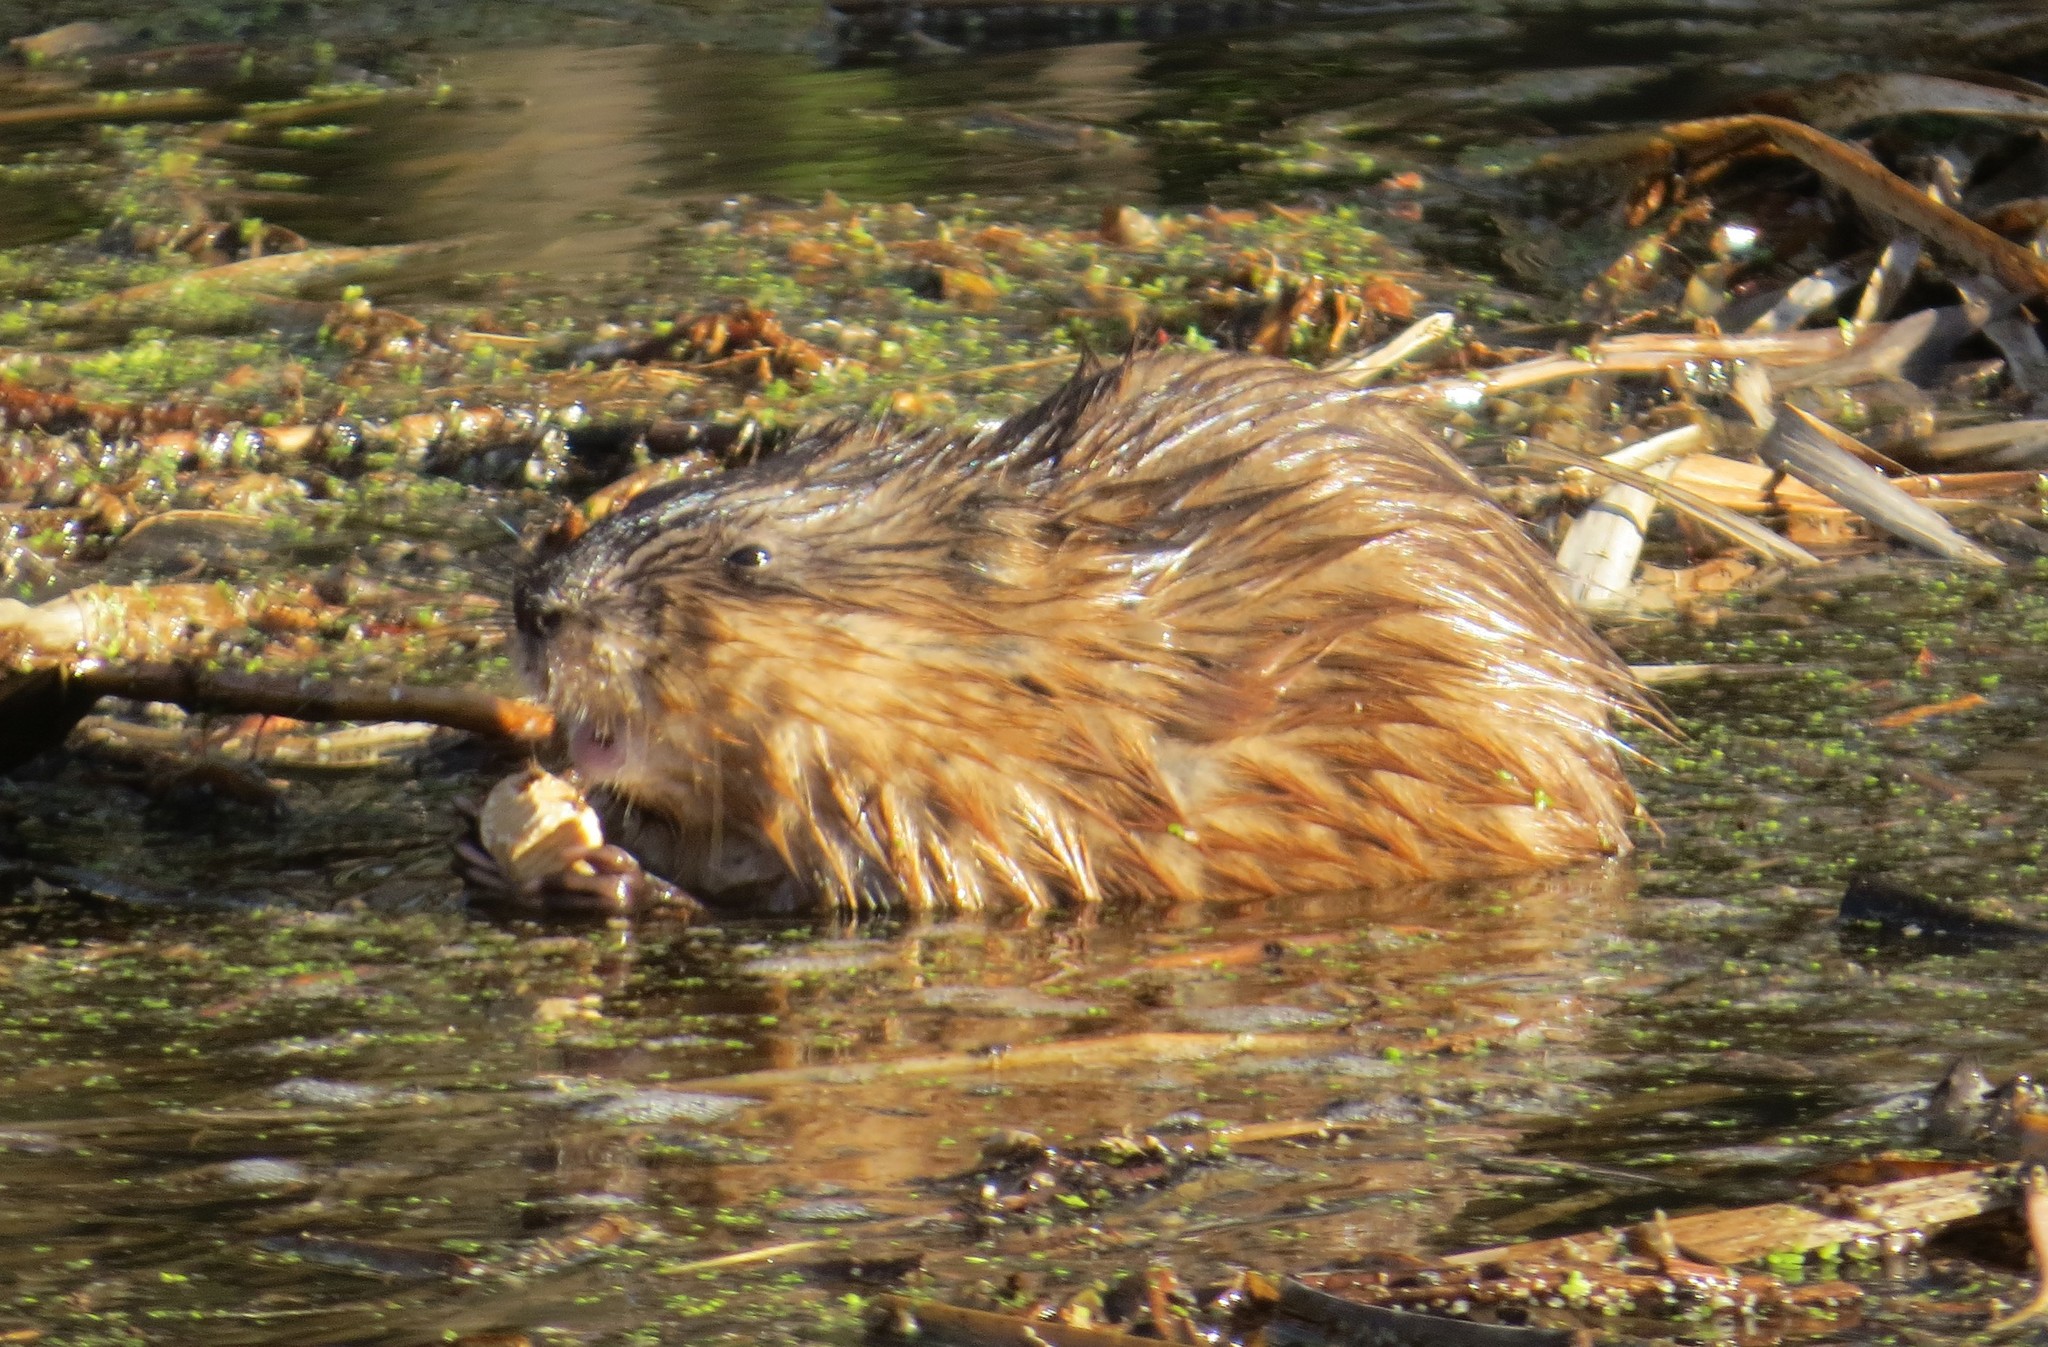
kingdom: Animalia
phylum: Chordata
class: Mammalia
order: Rodentia
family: Cricetidae
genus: Ondatra
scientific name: Ondatra zibethicus
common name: Muskrat
